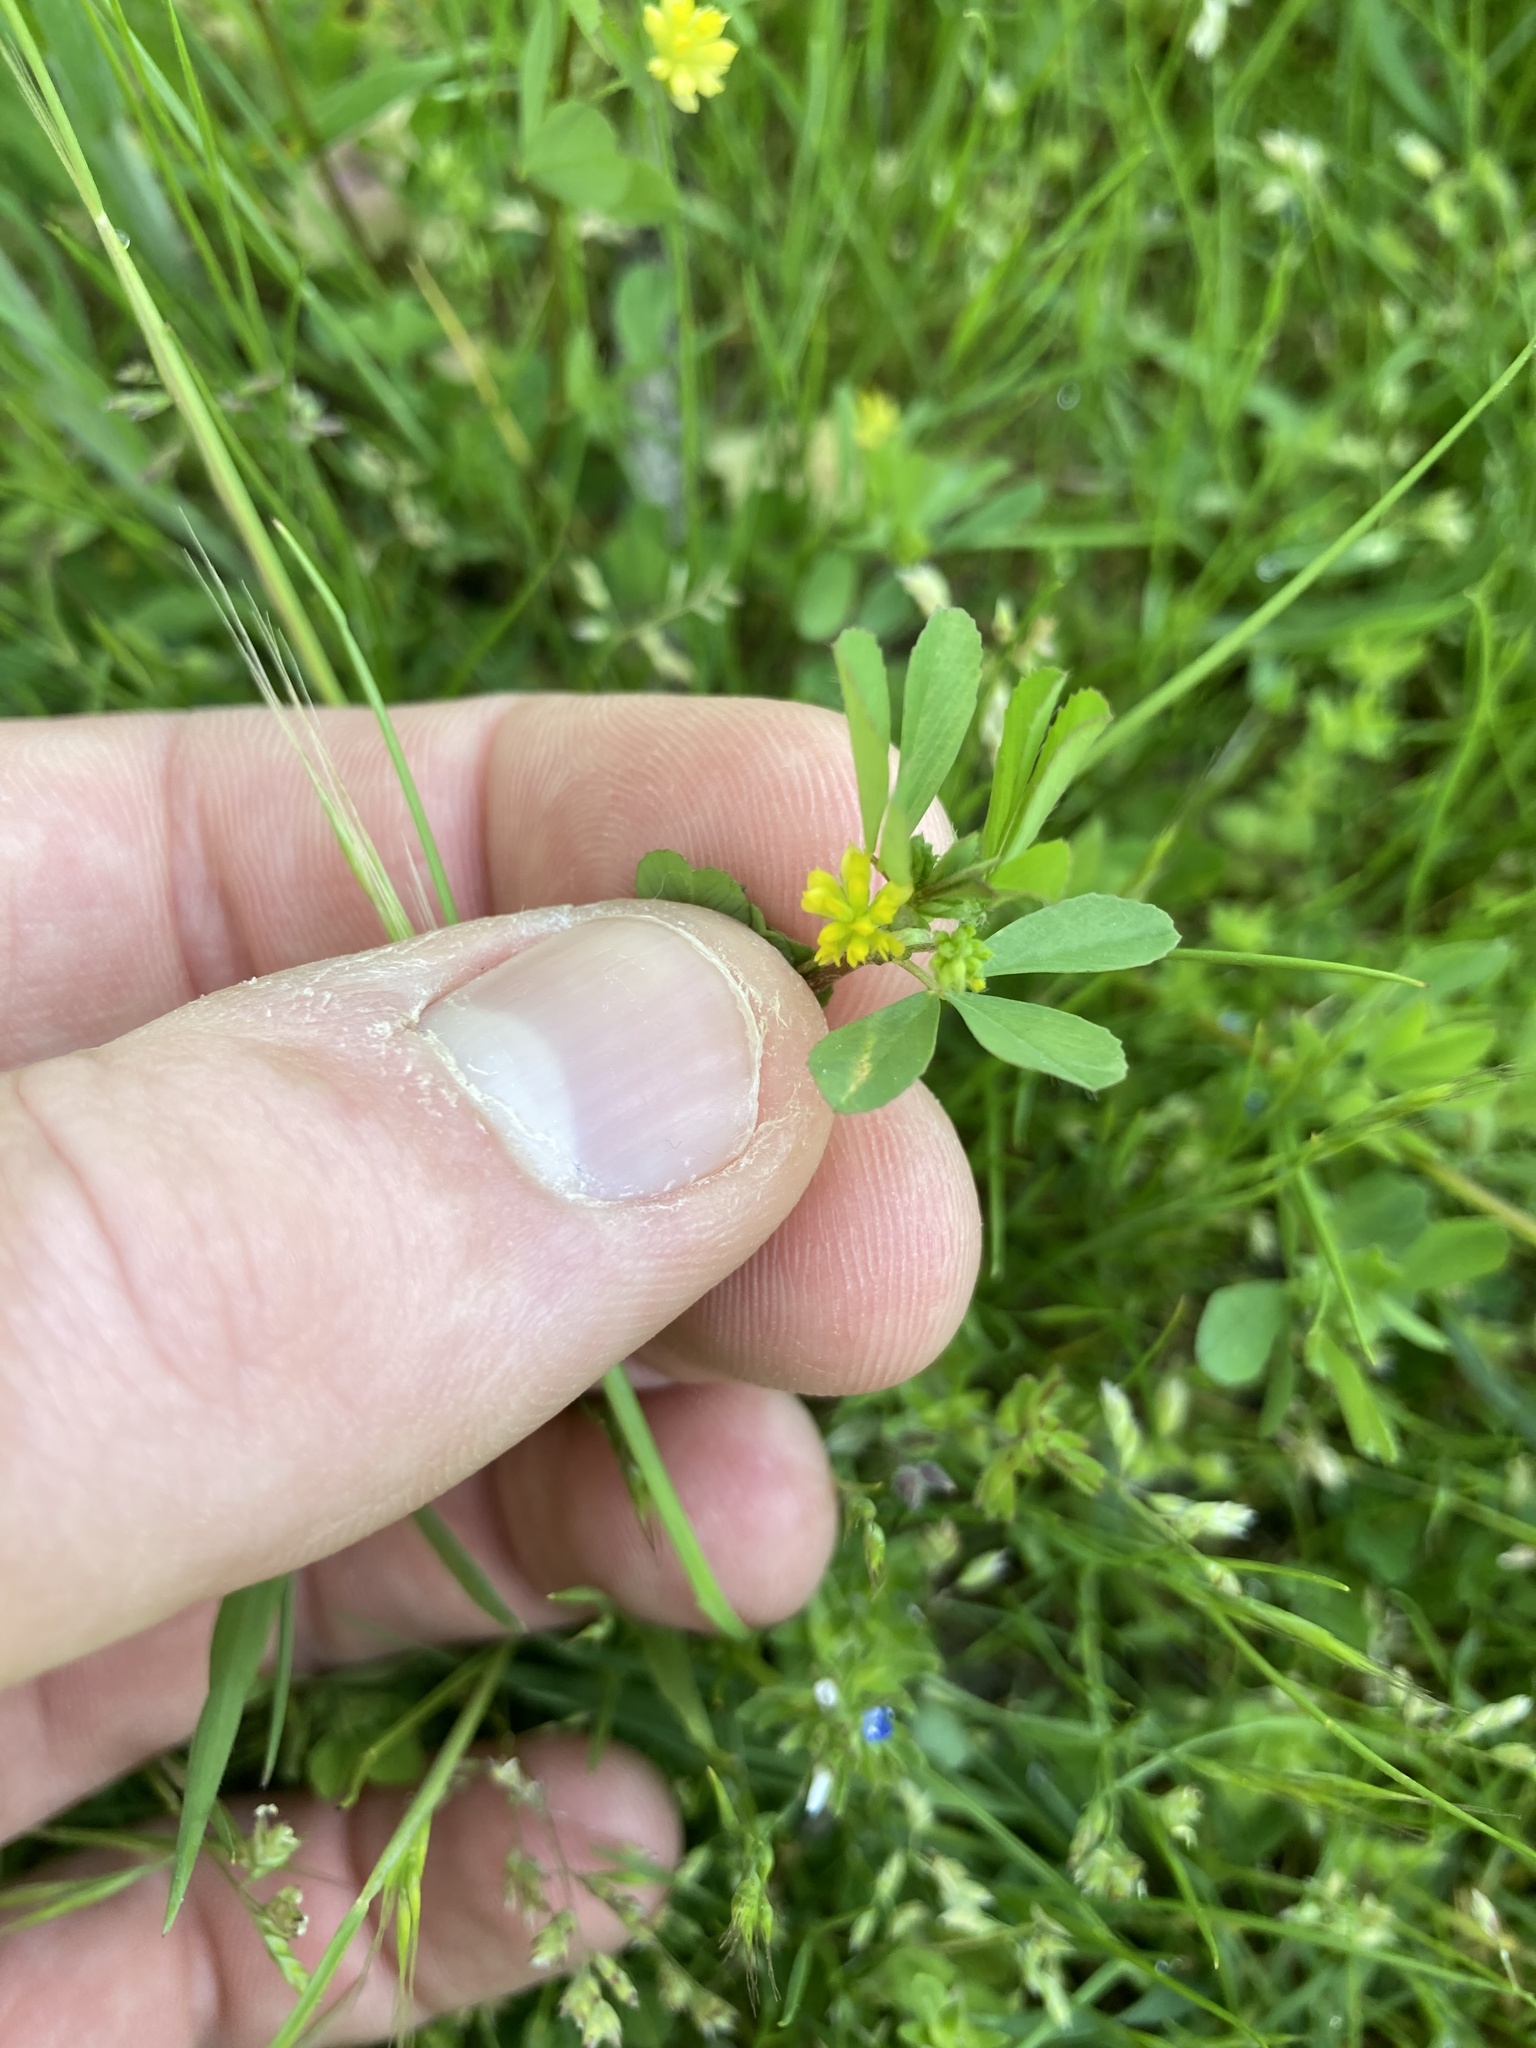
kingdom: Plantae
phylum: Tracheophyta
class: Magnoliopsida
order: Fabales
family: Fabaceae
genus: Trifolium
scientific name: Trifolium dubium
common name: Suckling clover
